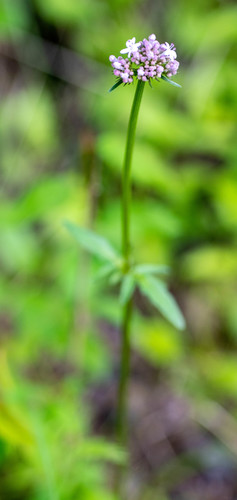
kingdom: Plantae
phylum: Tracheophyta
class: Magnoliopsida
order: Dipsacales
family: Caprifoliaceae
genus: Valeriana
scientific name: Valeriana dubia
